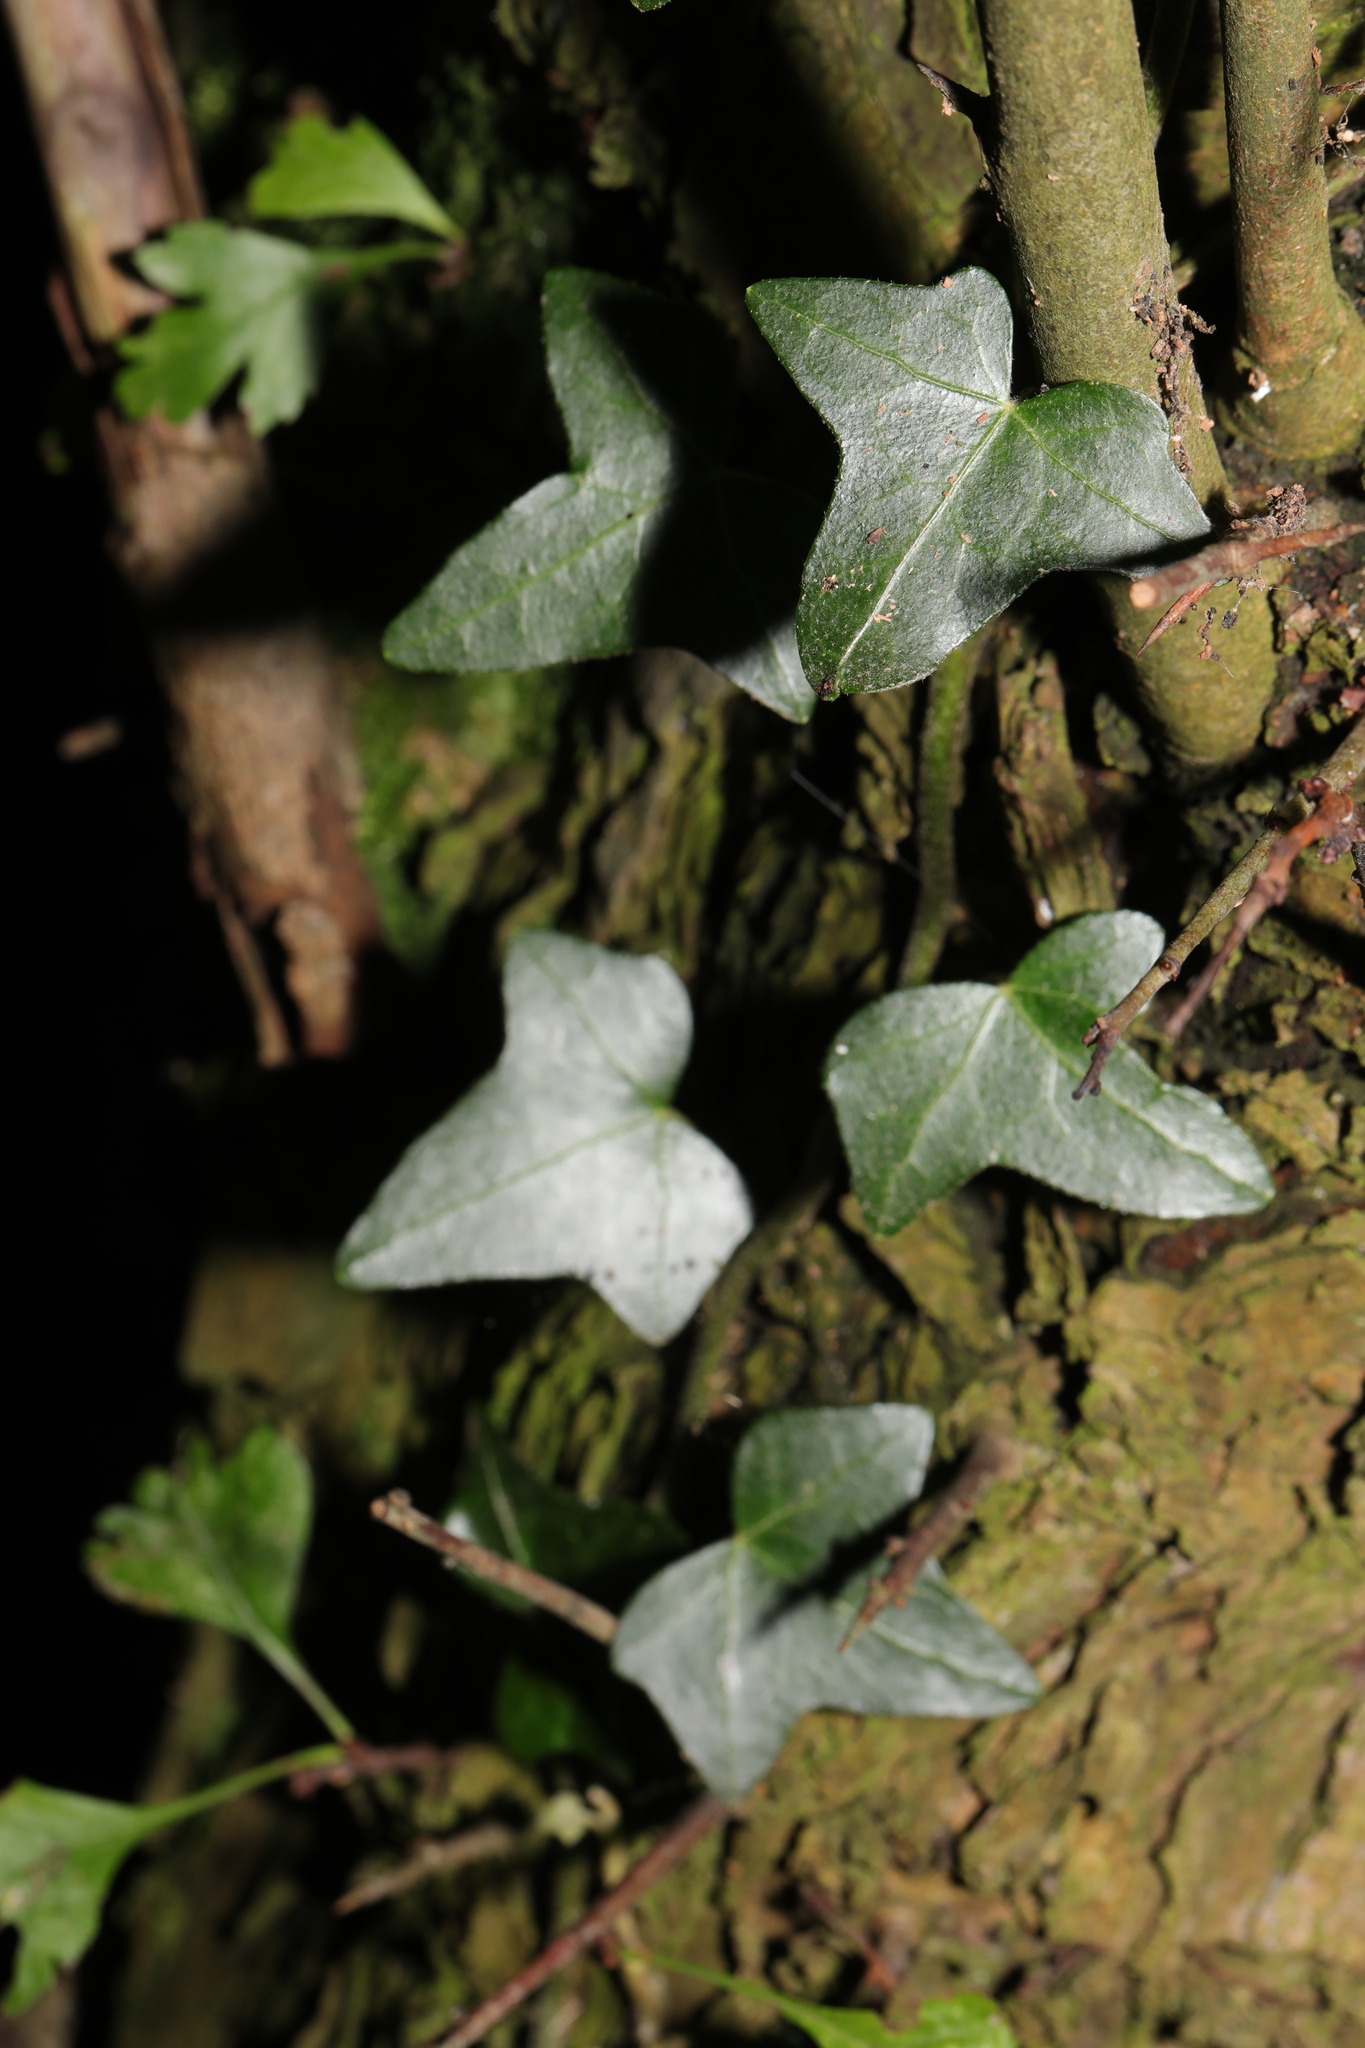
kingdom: Plantae
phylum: Tracheophyta
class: Magnoliopsida
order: Apiales
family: Araliaceae
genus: Hedera
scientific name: Hedera helix
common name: Ivy
